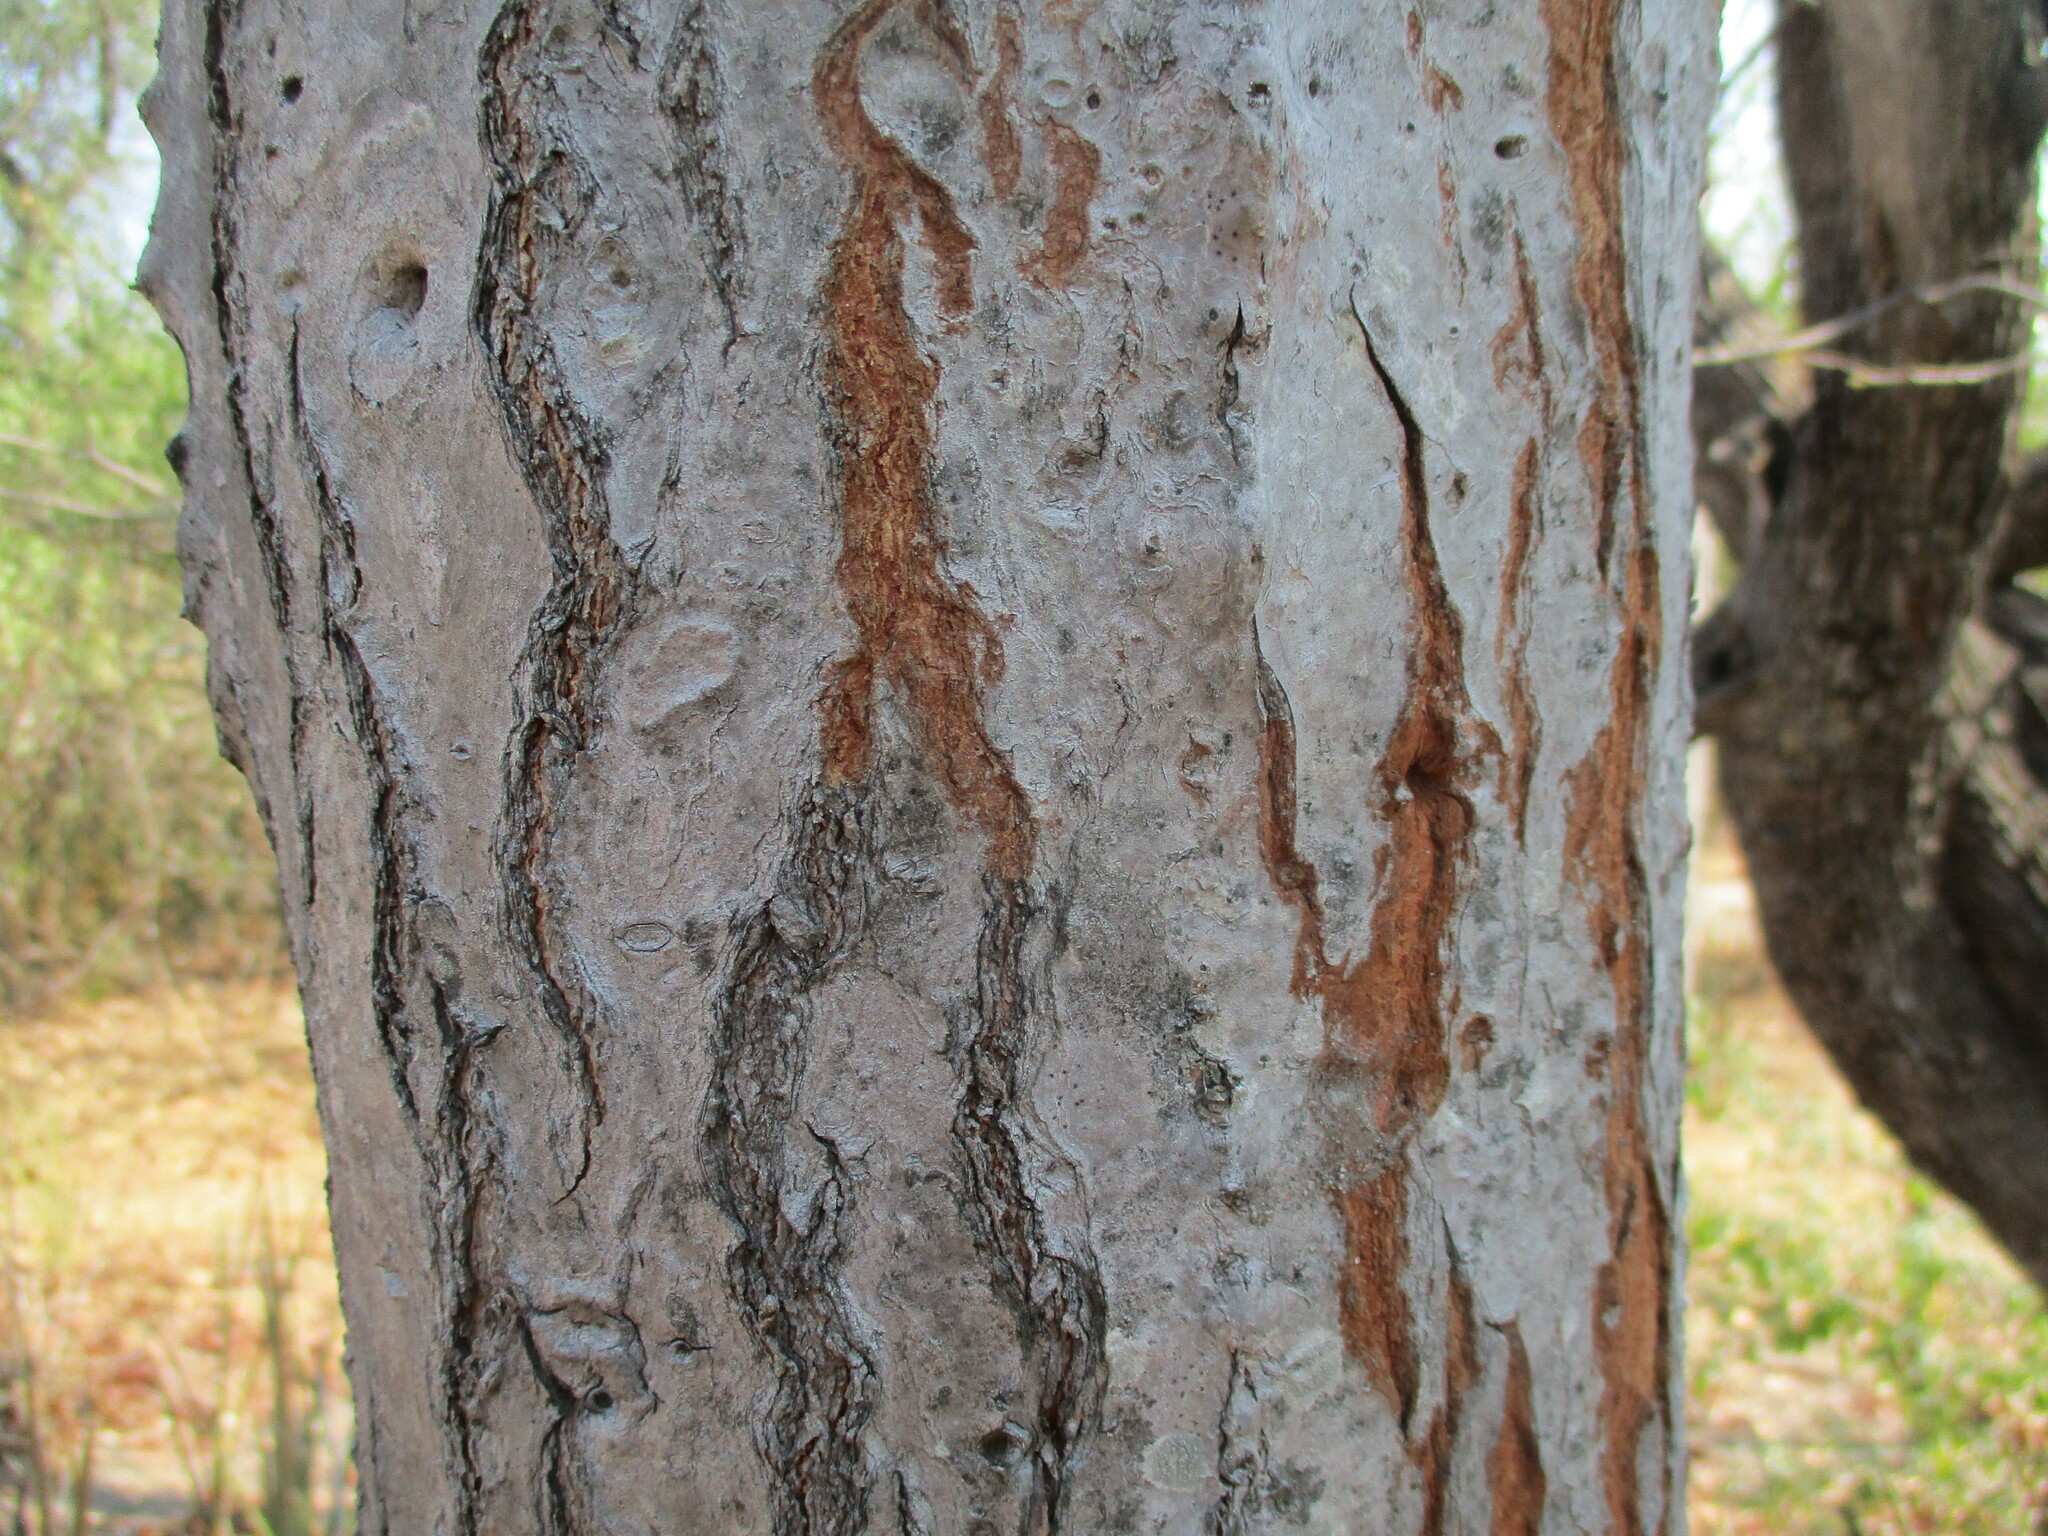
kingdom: Plantae
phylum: Tracheophyta
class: Magnoliopsida
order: Malpighiales
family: Euphorbiaceae
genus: Euphorbia
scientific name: Euphorbia ingens
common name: Cactus spurge
